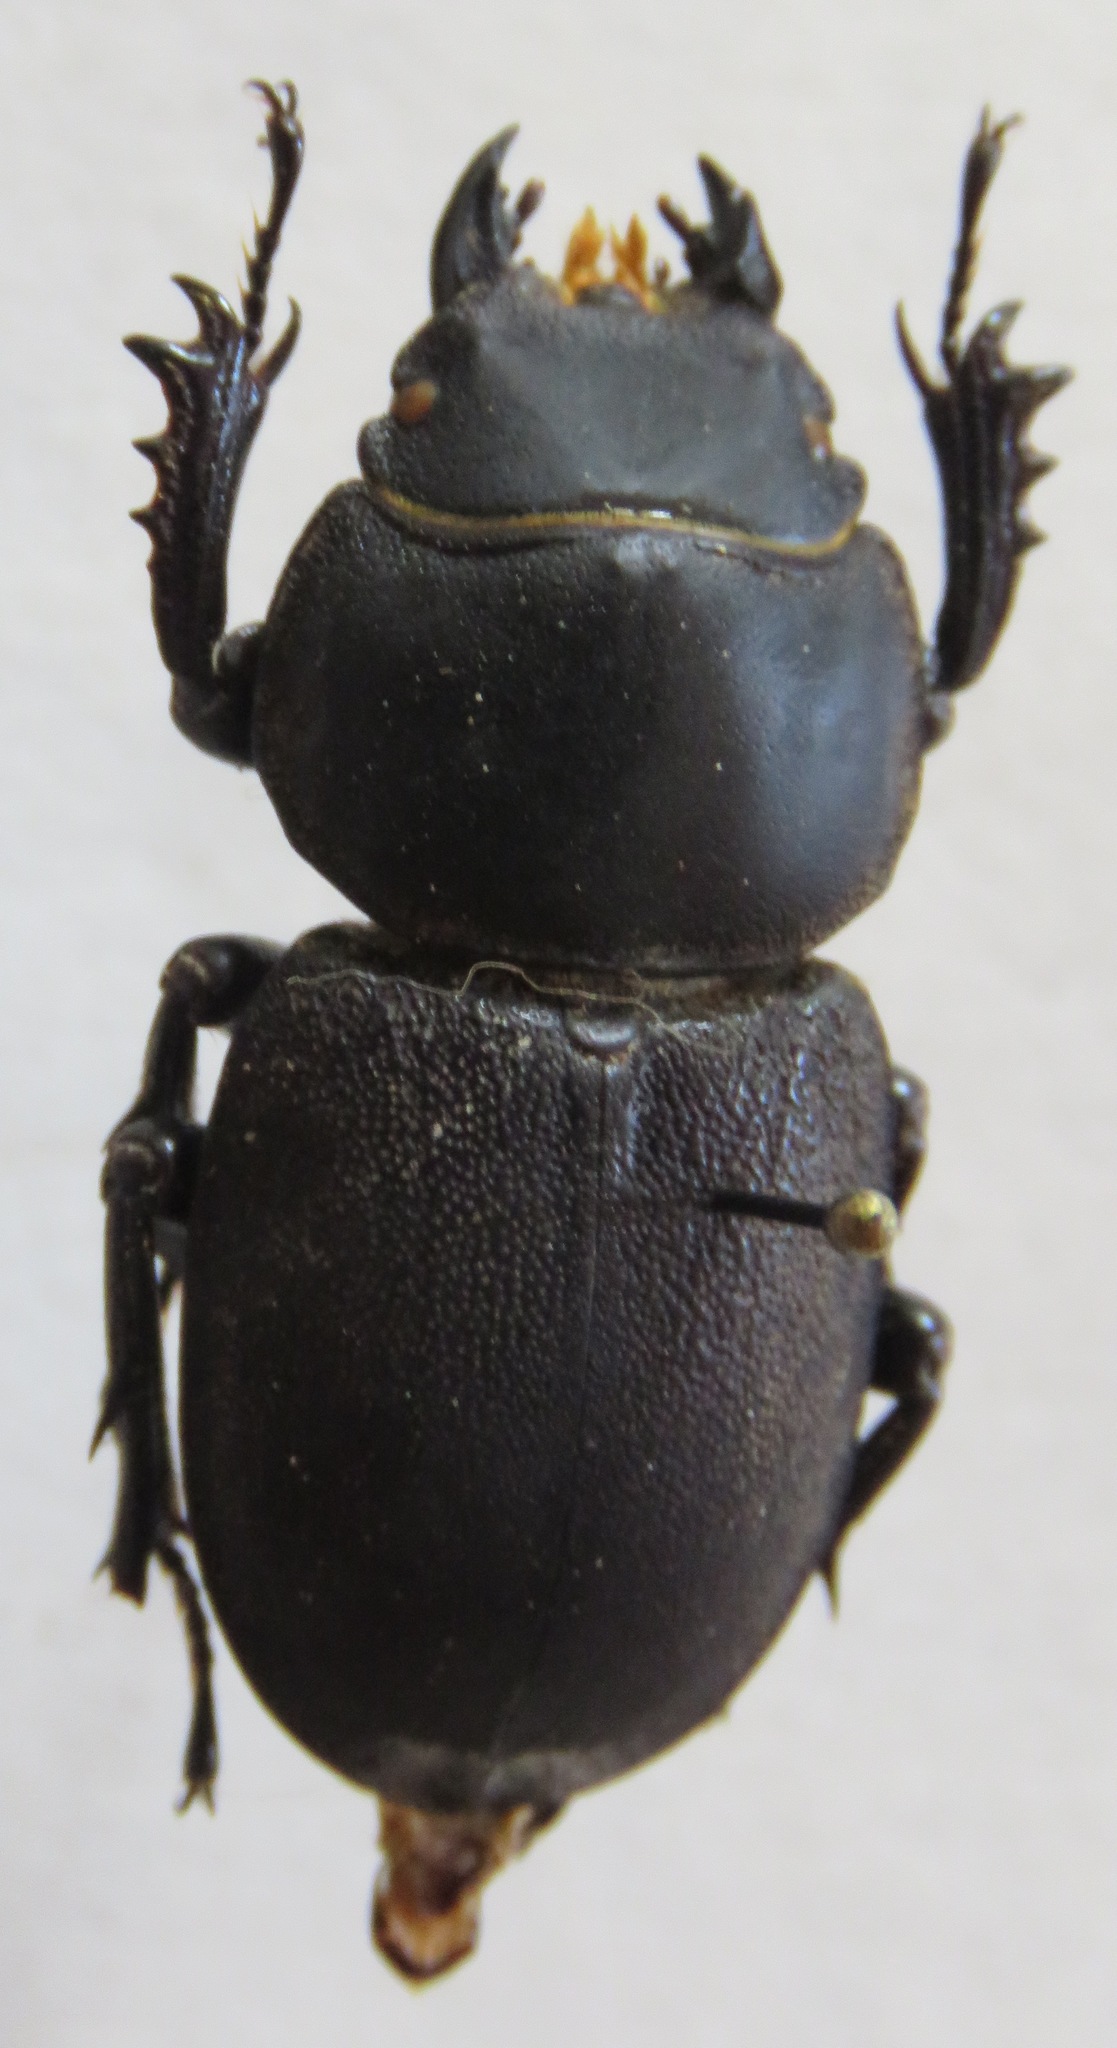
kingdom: Animalia
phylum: Arthropoda
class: Insecta
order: Coleoptera
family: Lucanidae
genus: Apterodorcus
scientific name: Apterodorcus bacchus
